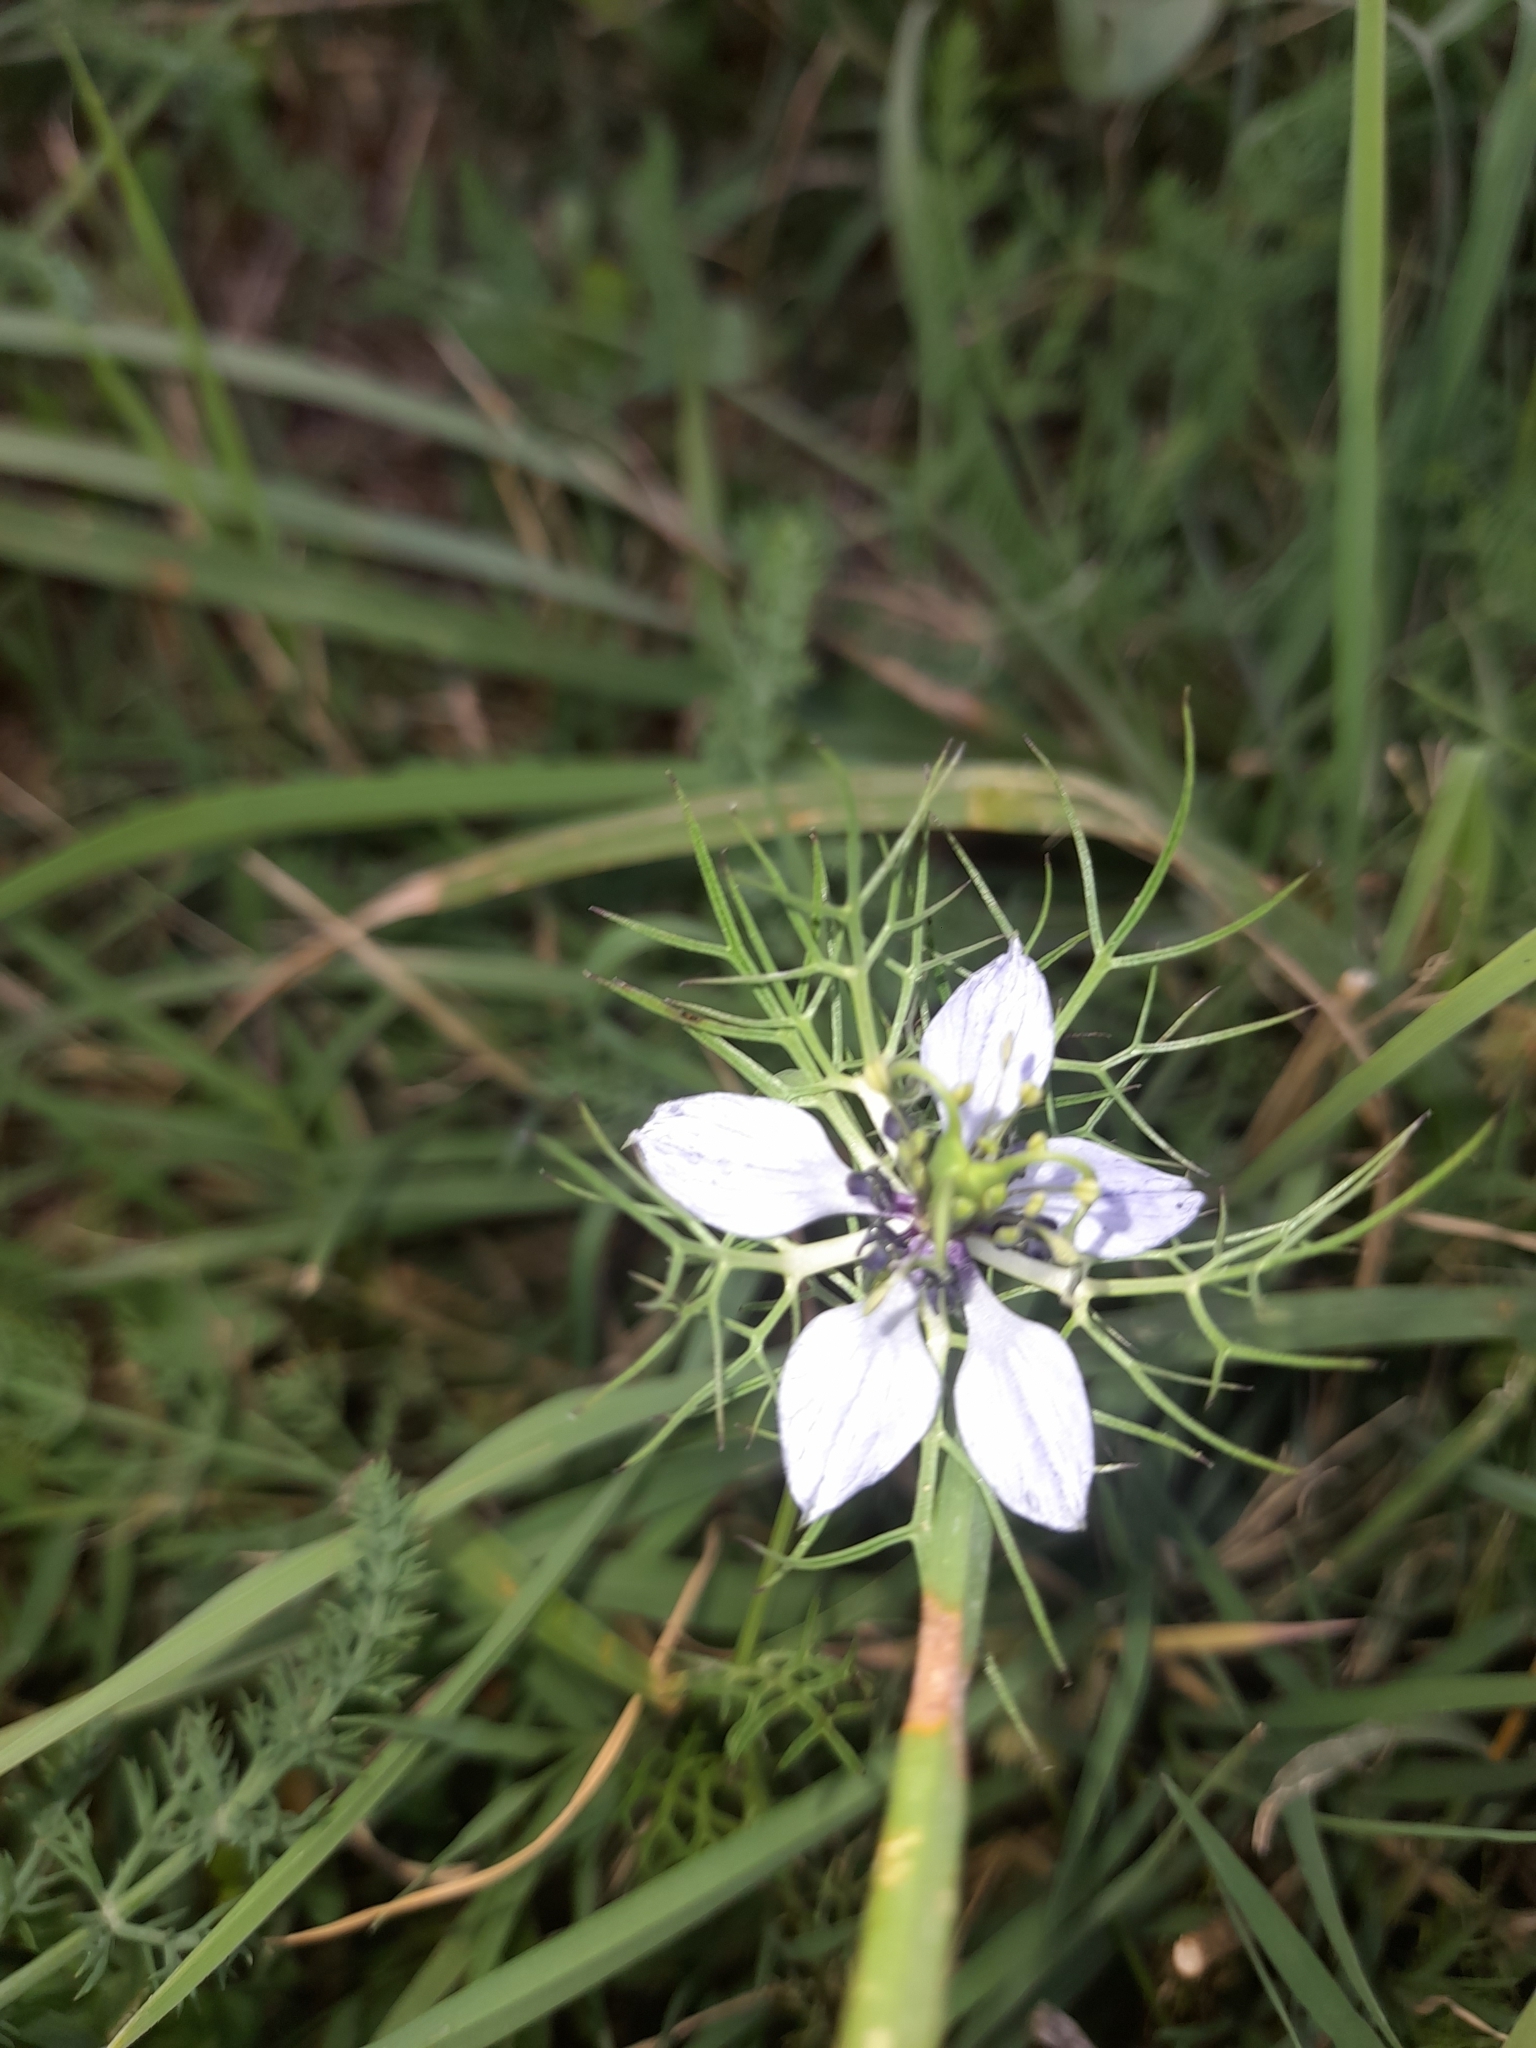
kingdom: Plantae
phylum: Tracheophyta
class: Magnoliopsida
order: Ranunculales
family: Ranunculaceae
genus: Nigella
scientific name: Nigella damascena
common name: Love-in-a-mist
